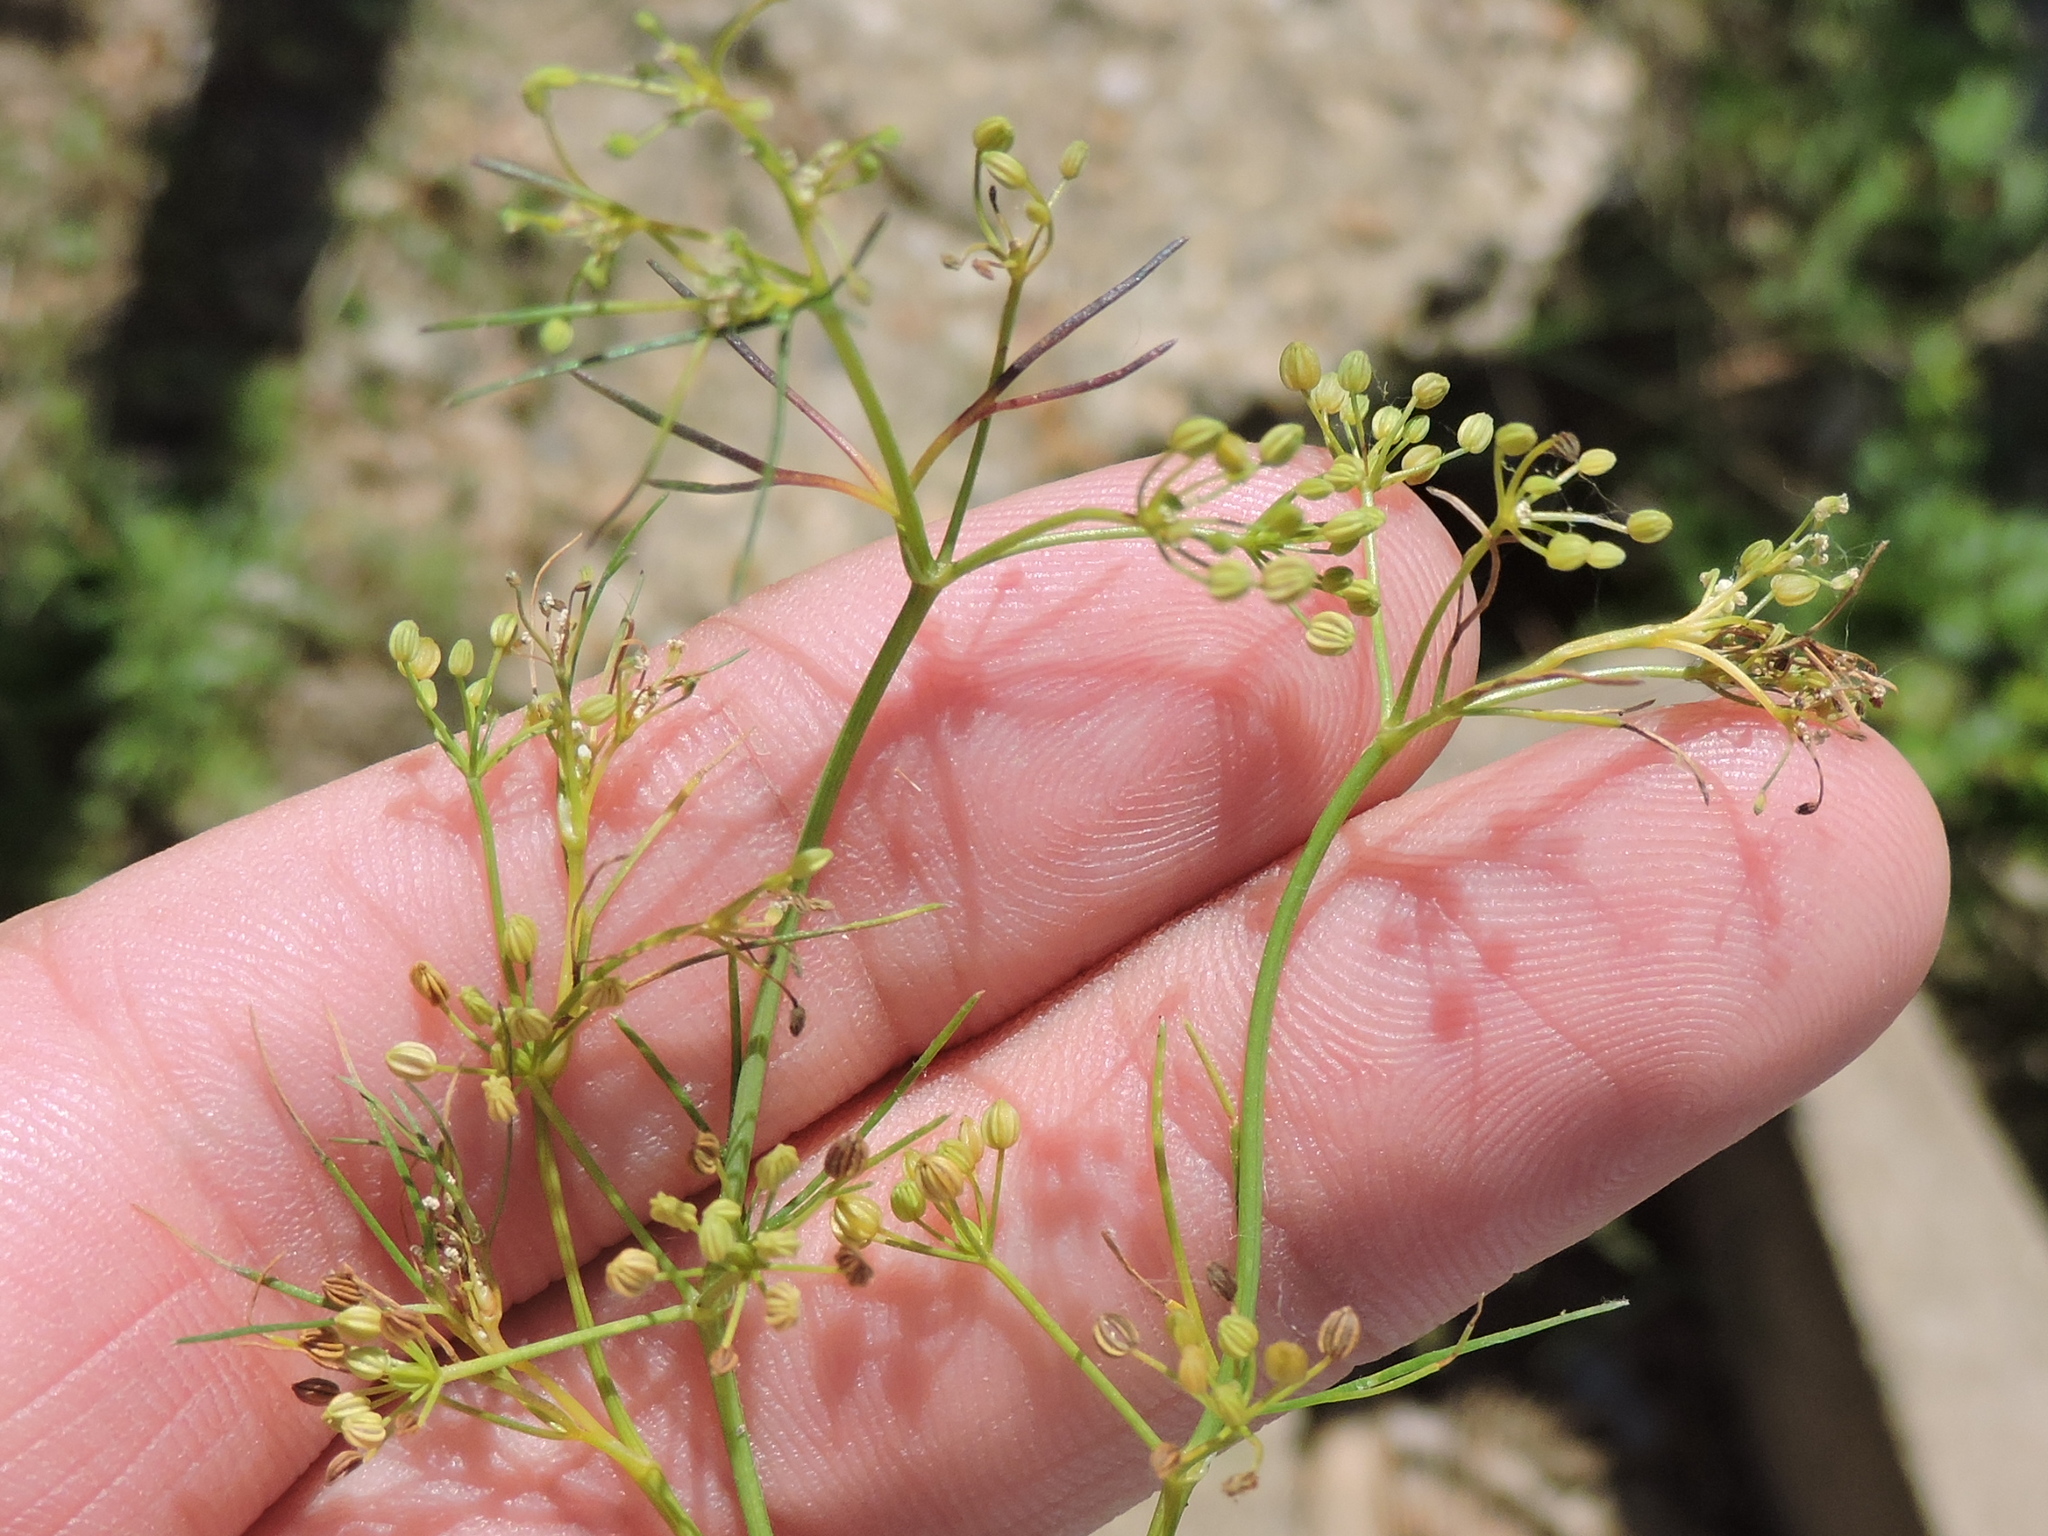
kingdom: Plantae
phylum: Tracheophyta
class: Magnoliopsida
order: Apiales
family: Apiaceae
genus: Cyclospermum
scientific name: Cyclospermum leptophyllum
